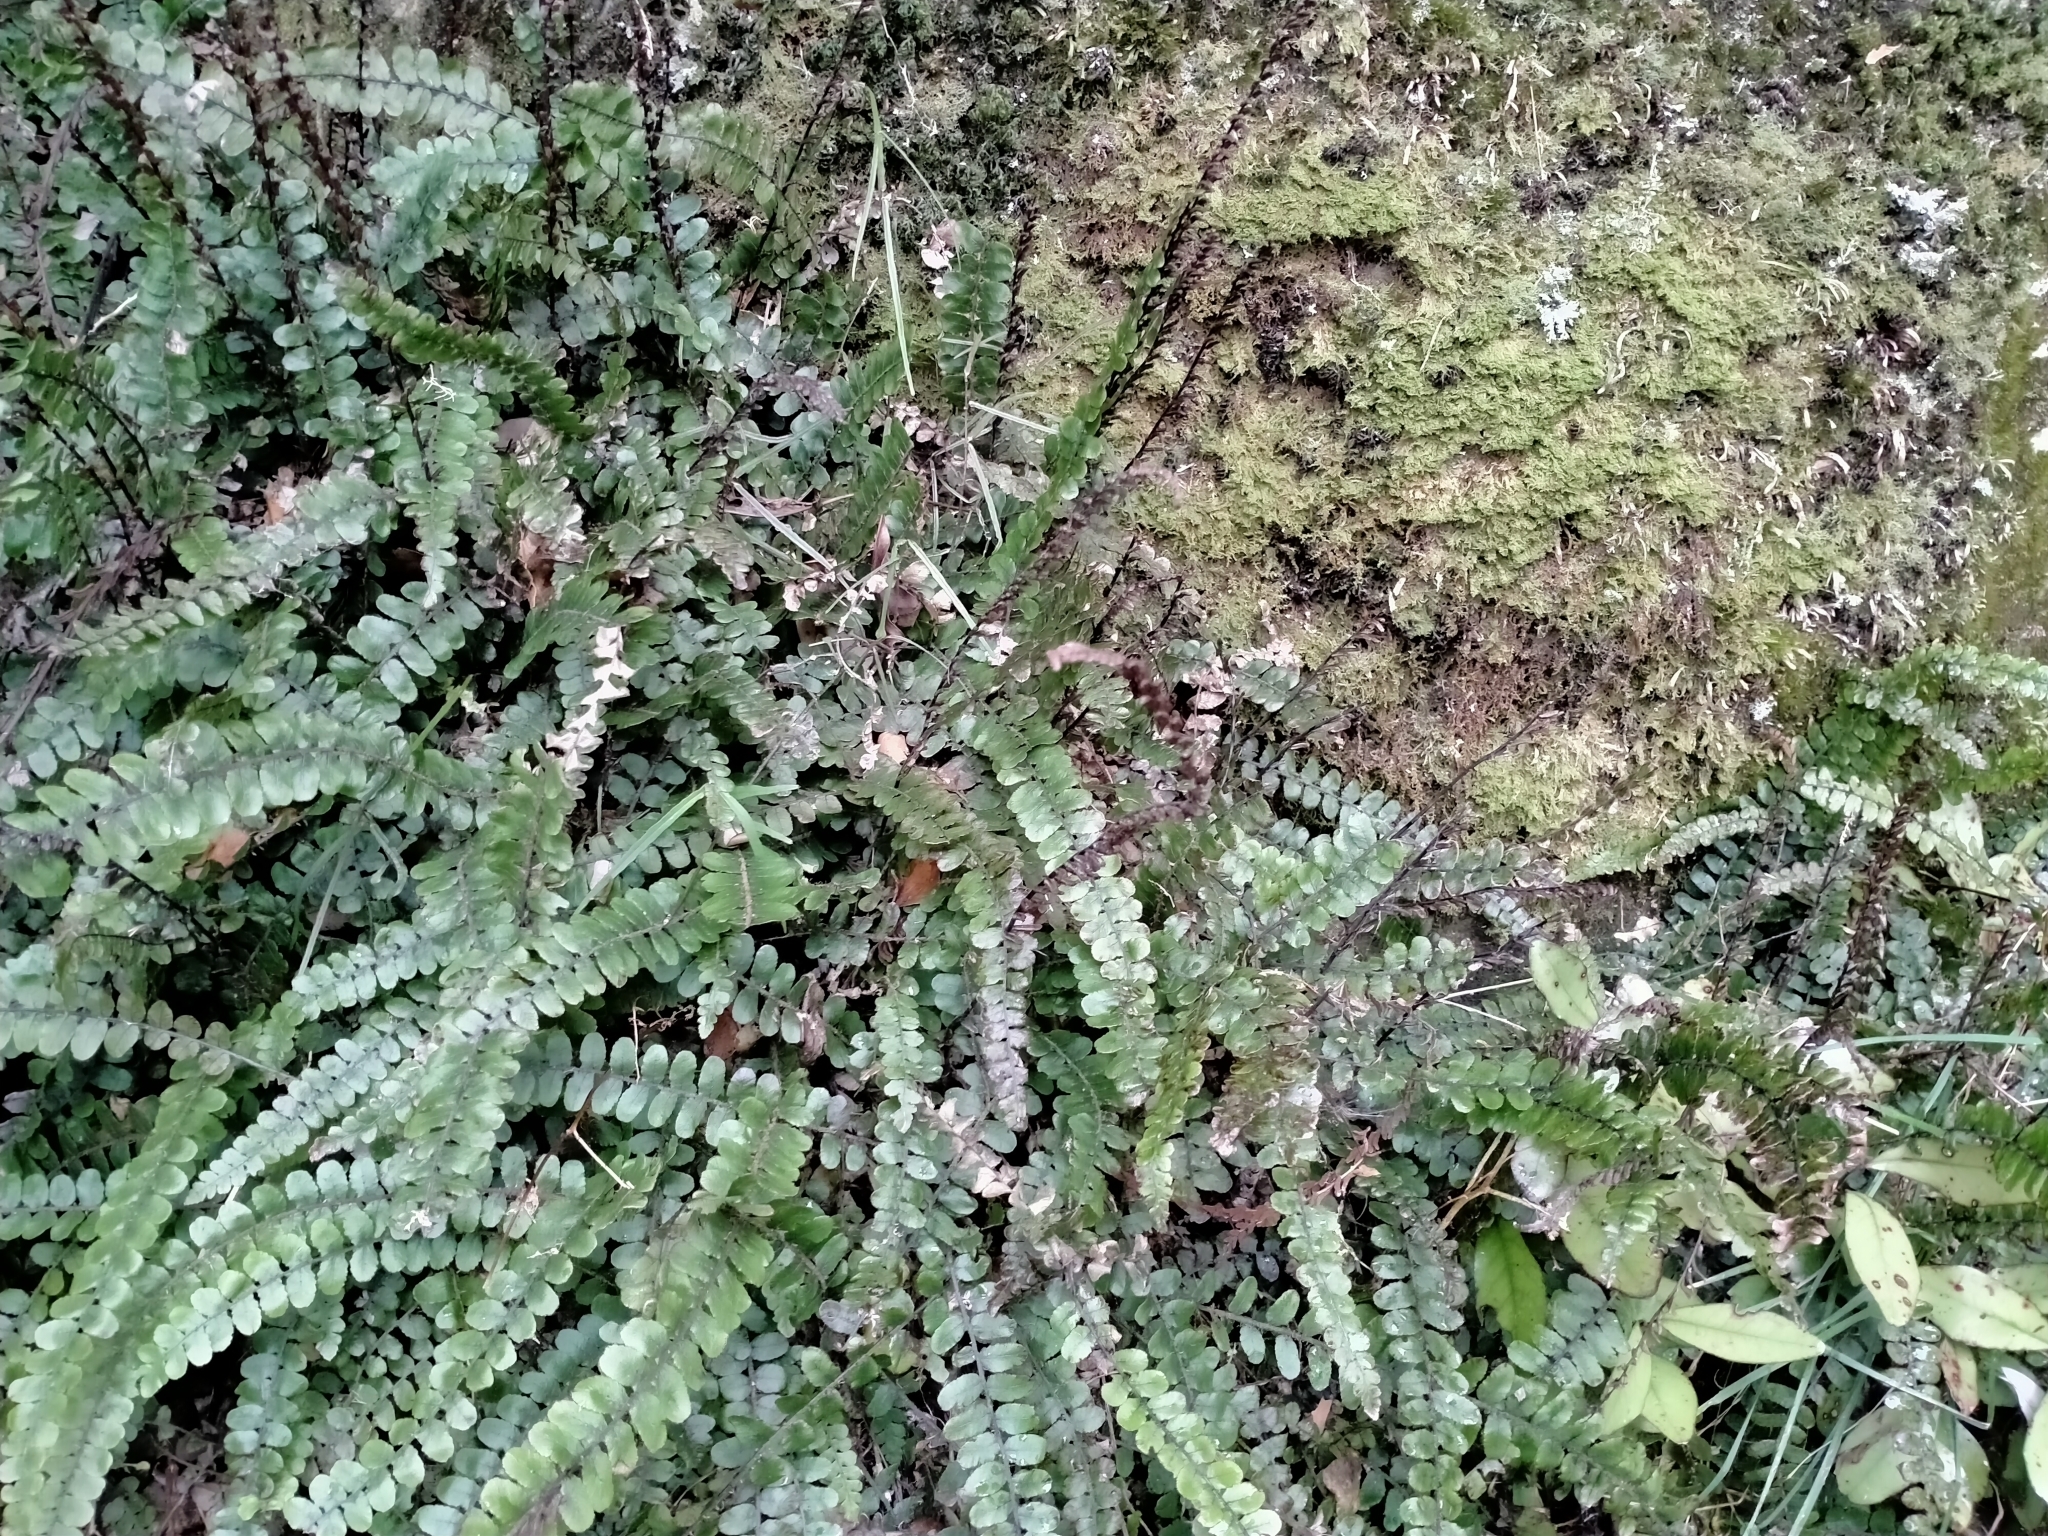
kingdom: Plantae
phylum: Tracheophyta
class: Polypodiopsida
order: Polypodiales
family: Blechnaceae
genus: Cranfillia
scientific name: Cranfillia fluviatilis
